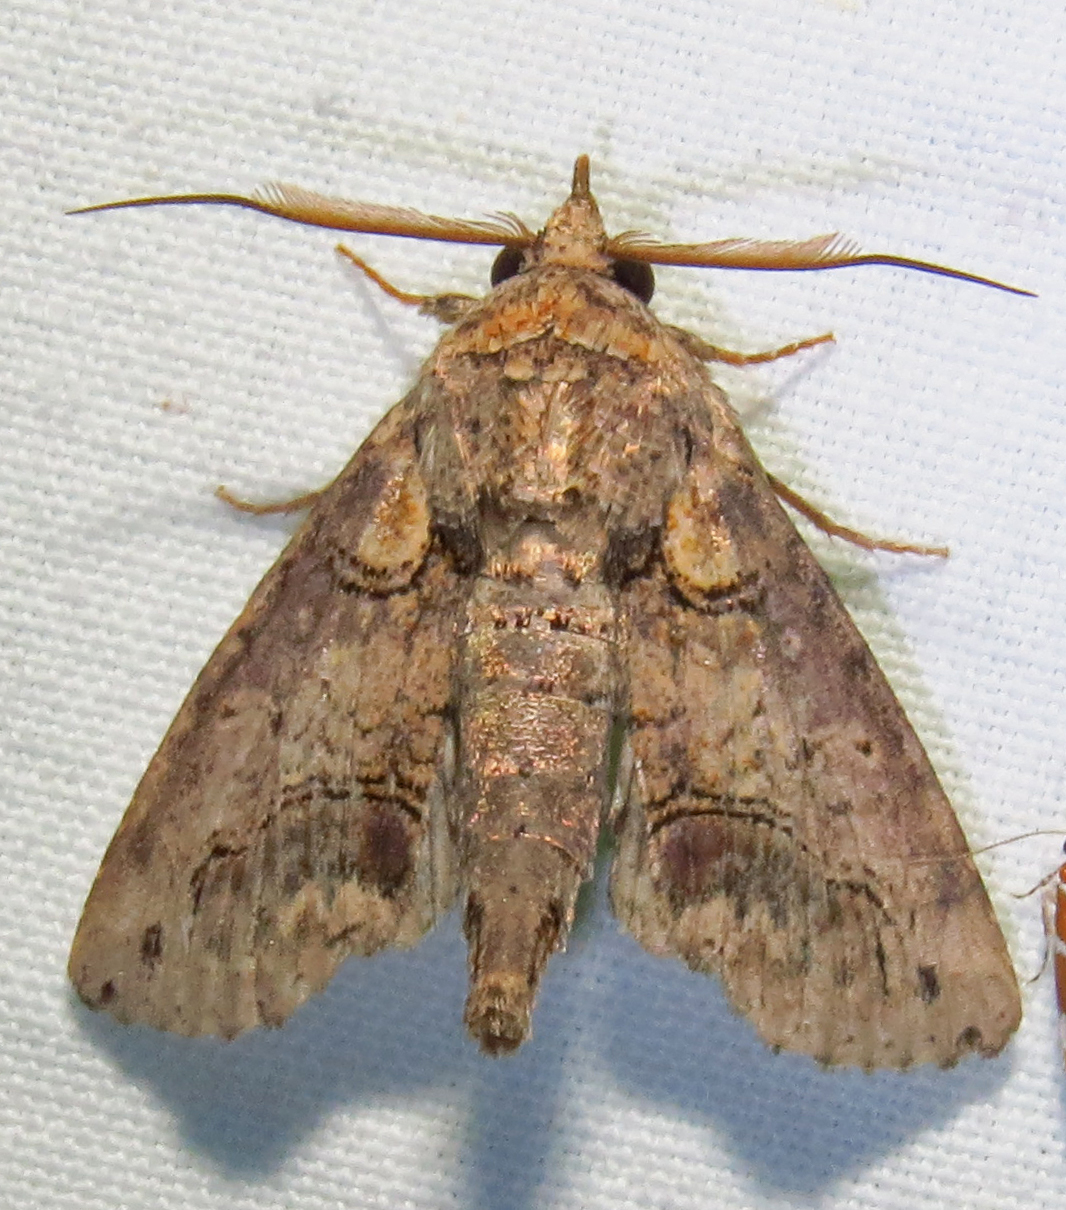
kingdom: Animalia
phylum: Arthropoda
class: Insecta
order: Lepidoptera
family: Euteliidae
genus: Paectes
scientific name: Paectes abrostoloides
